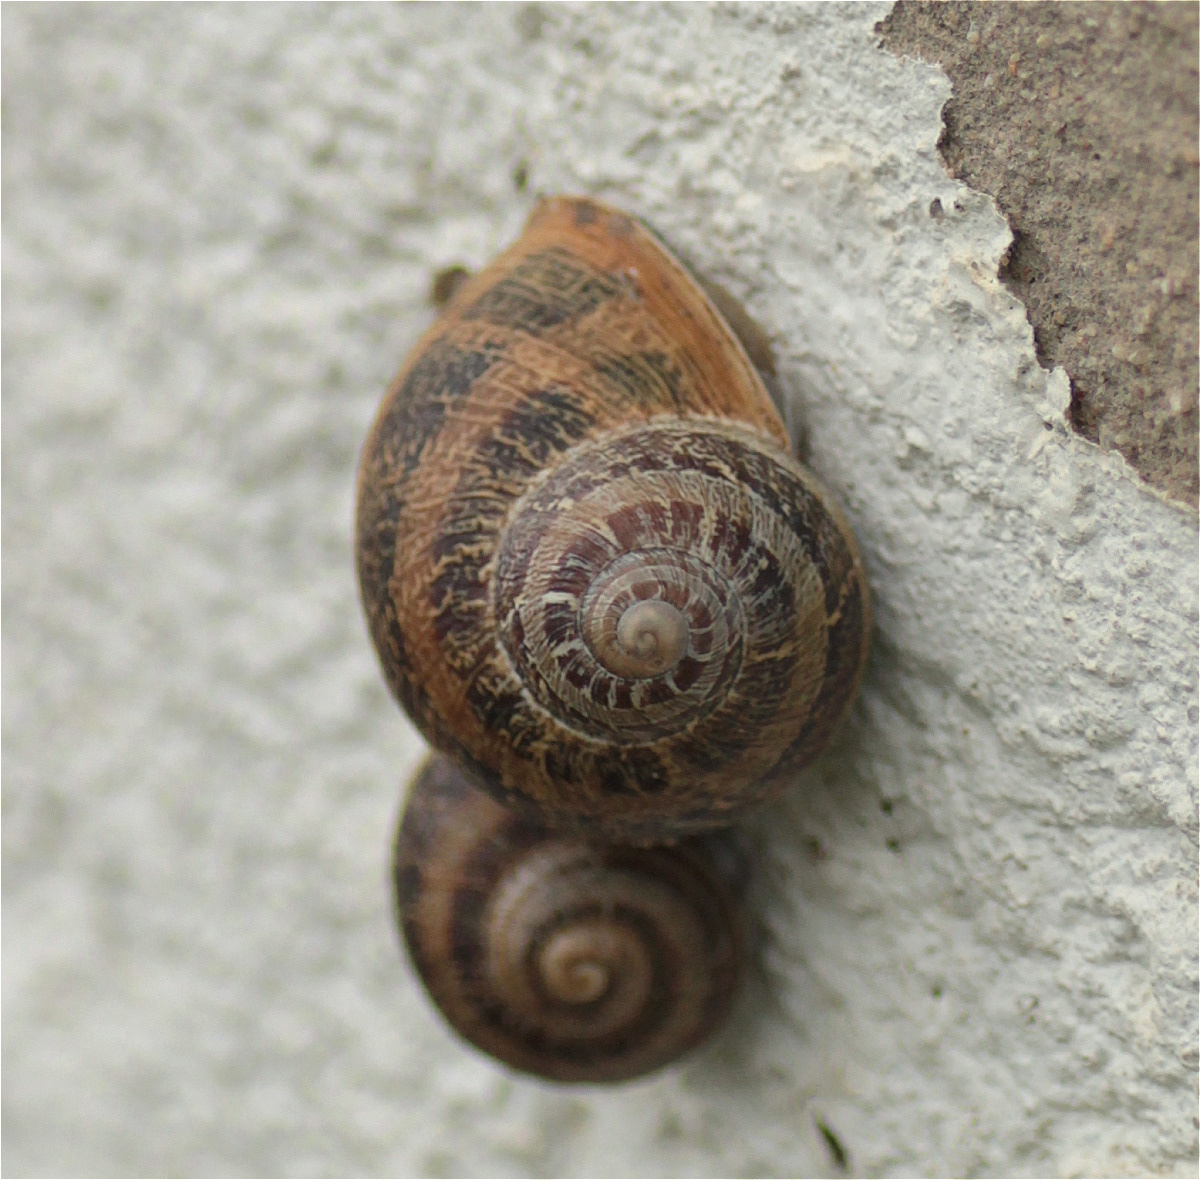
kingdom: Animalia
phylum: Mollusca
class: Gastropoda
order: Stylommatophora
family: Helicidae
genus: Cornu
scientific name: Cornu aspersum
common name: Brown garden snail
